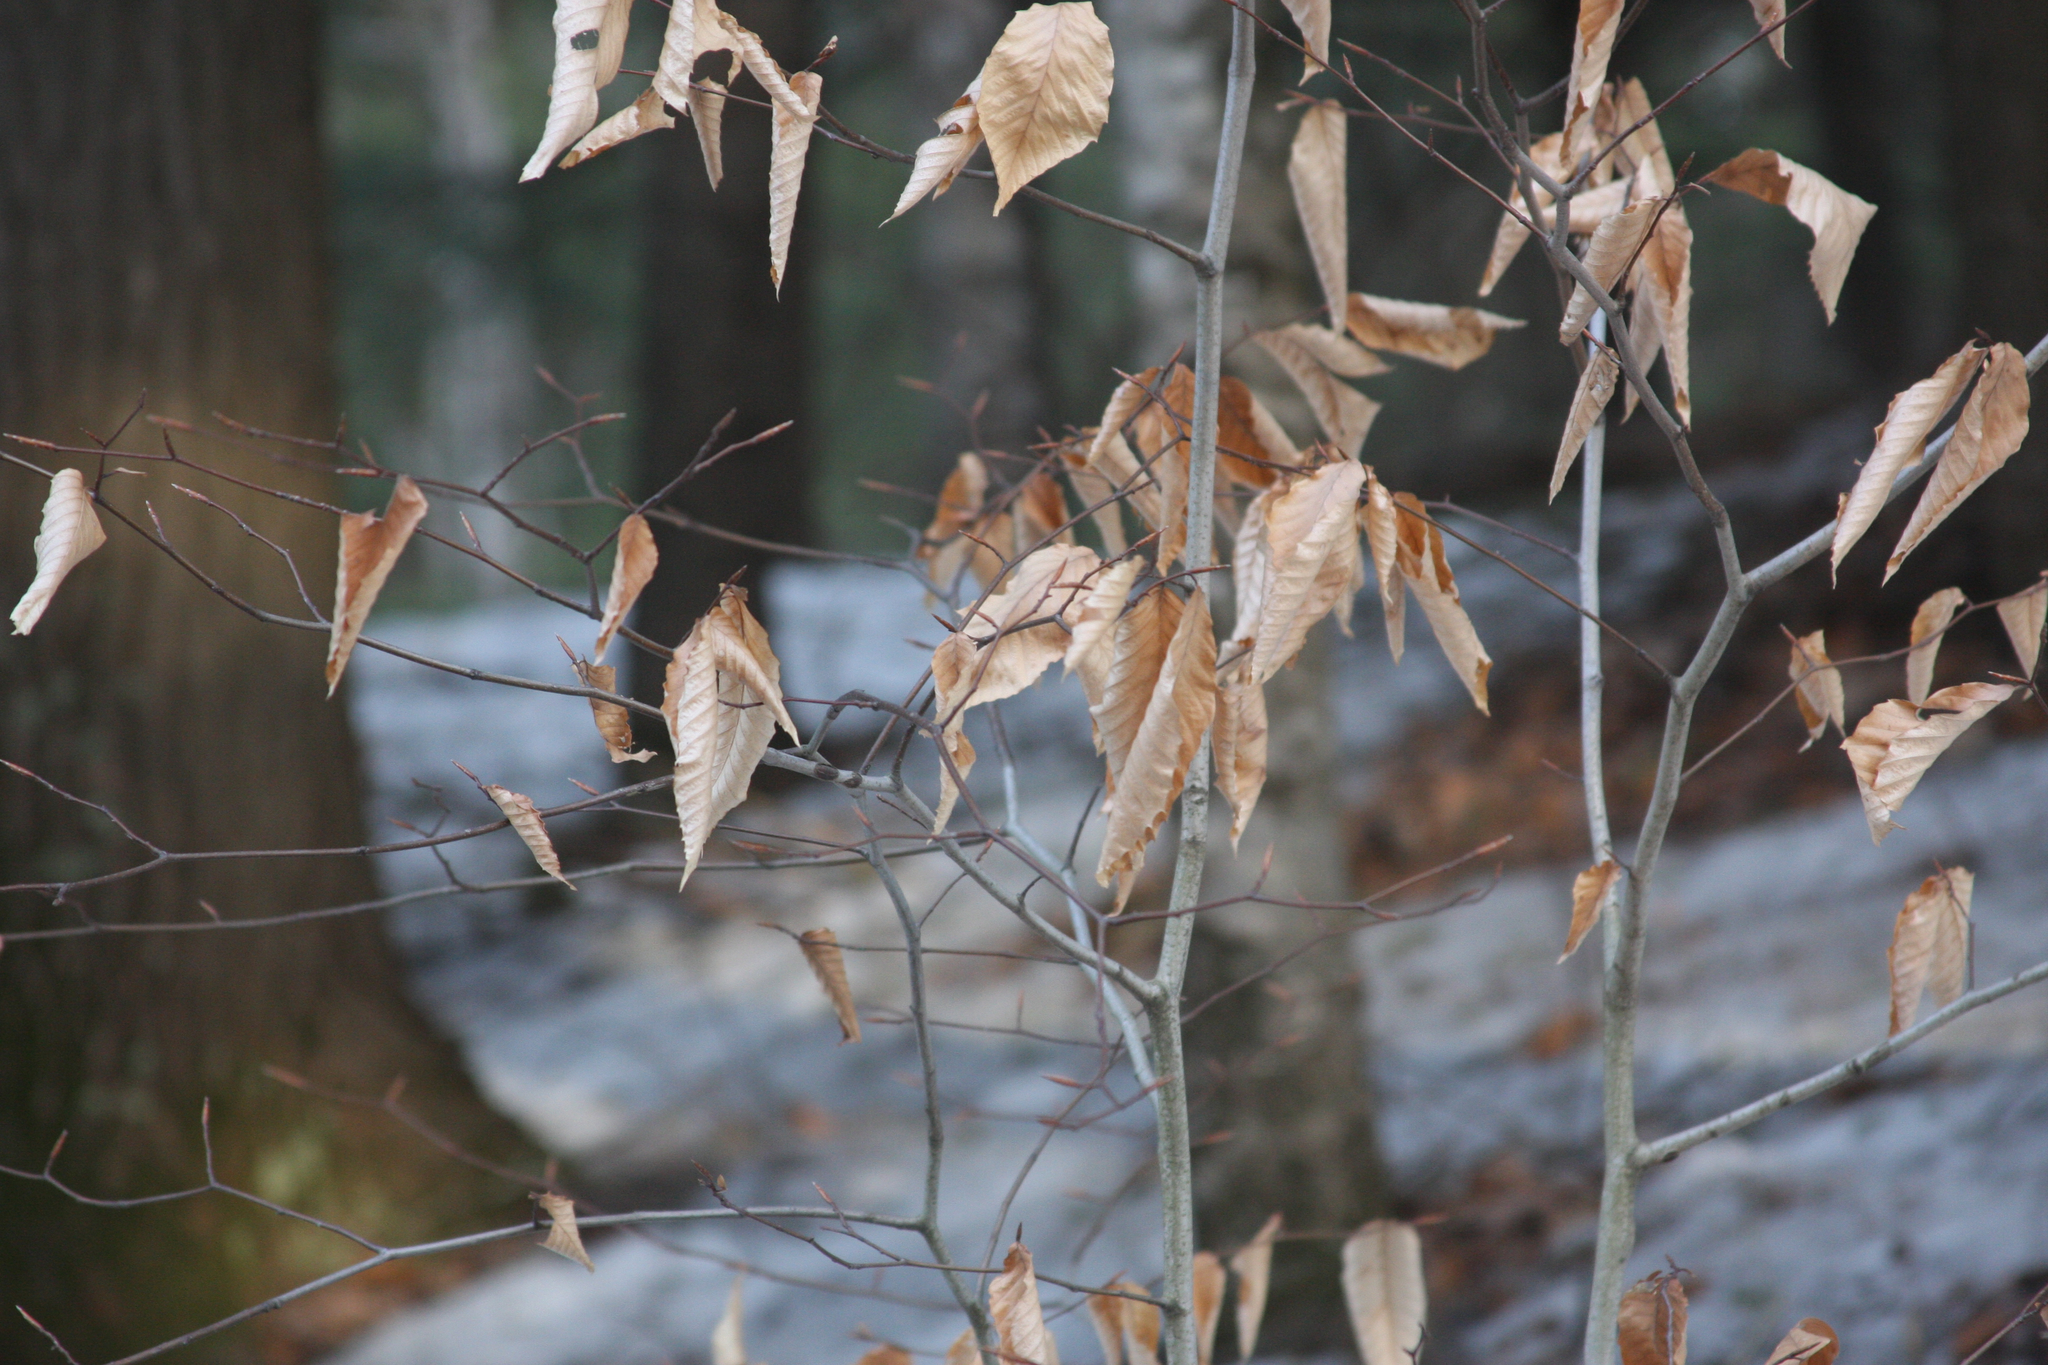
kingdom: Plantae
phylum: Tracheophyta
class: Magnoliopsida
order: Fagales
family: Fagaceae
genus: Fagus
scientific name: Fagus grandifolia
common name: American beech
